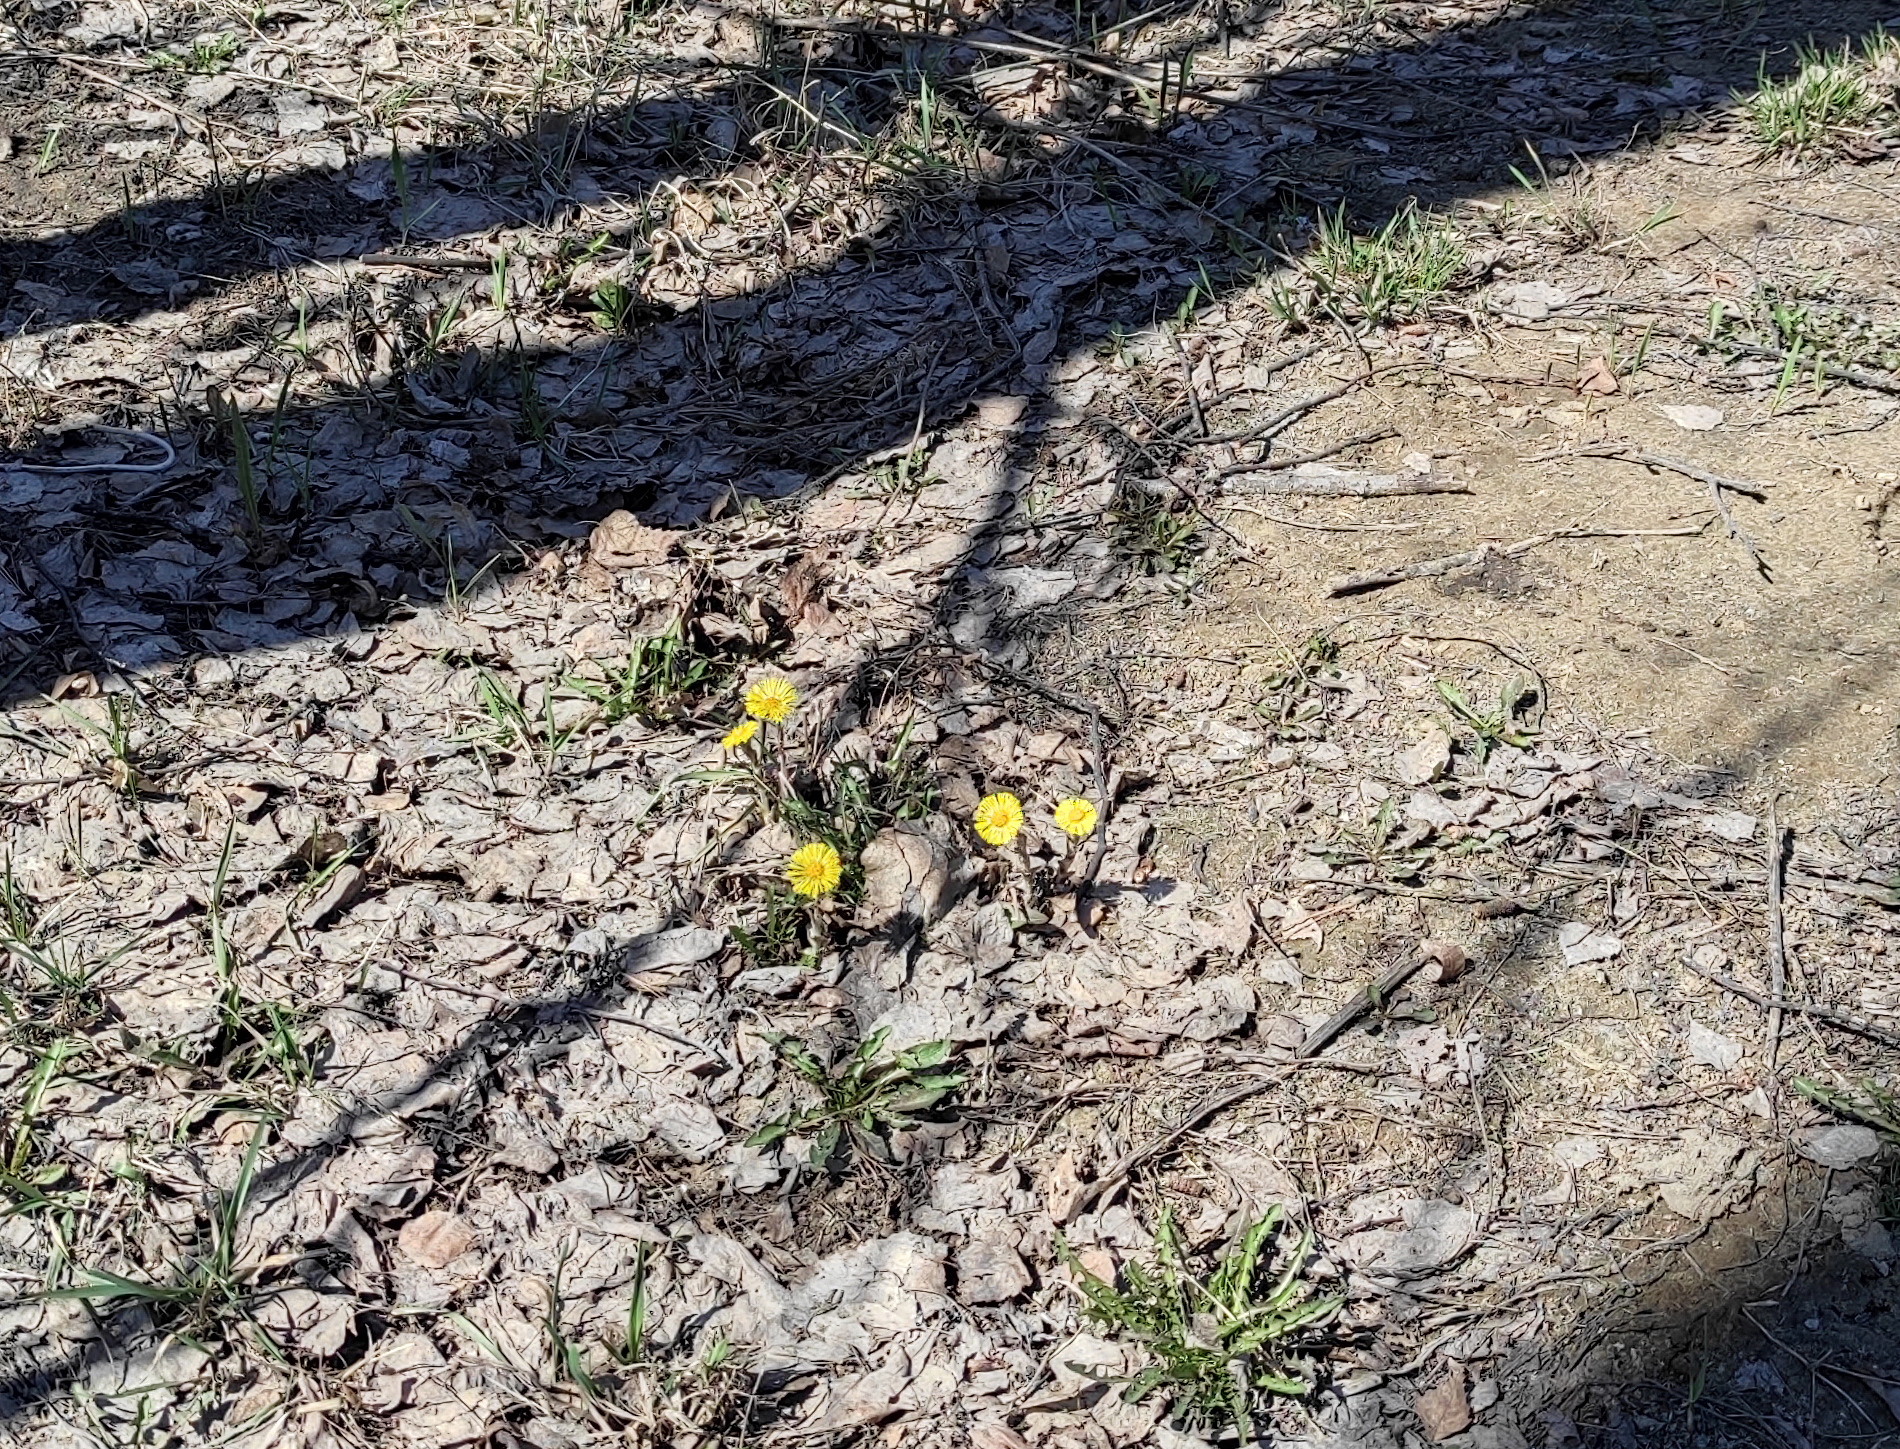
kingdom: Plantae
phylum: Tracheophyta
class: Magnoliopsida
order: Asterales
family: Asteraceae
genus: Tussilago
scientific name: Tussilago farfara
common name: Coltsfoot
